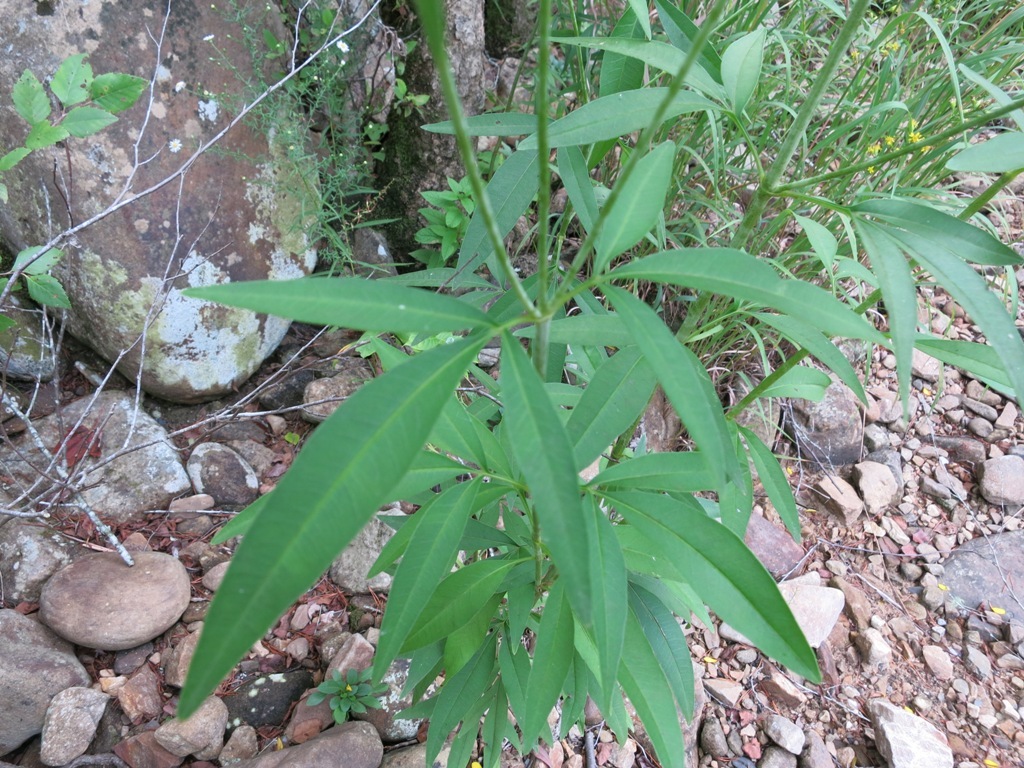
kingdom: Plantae
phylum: Tracheophyta
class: Magnoliopsida
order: Asterales
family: Asteraceae
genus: Coreopsis
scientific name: Coreopsis tripteris
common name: Tall coreopsis
